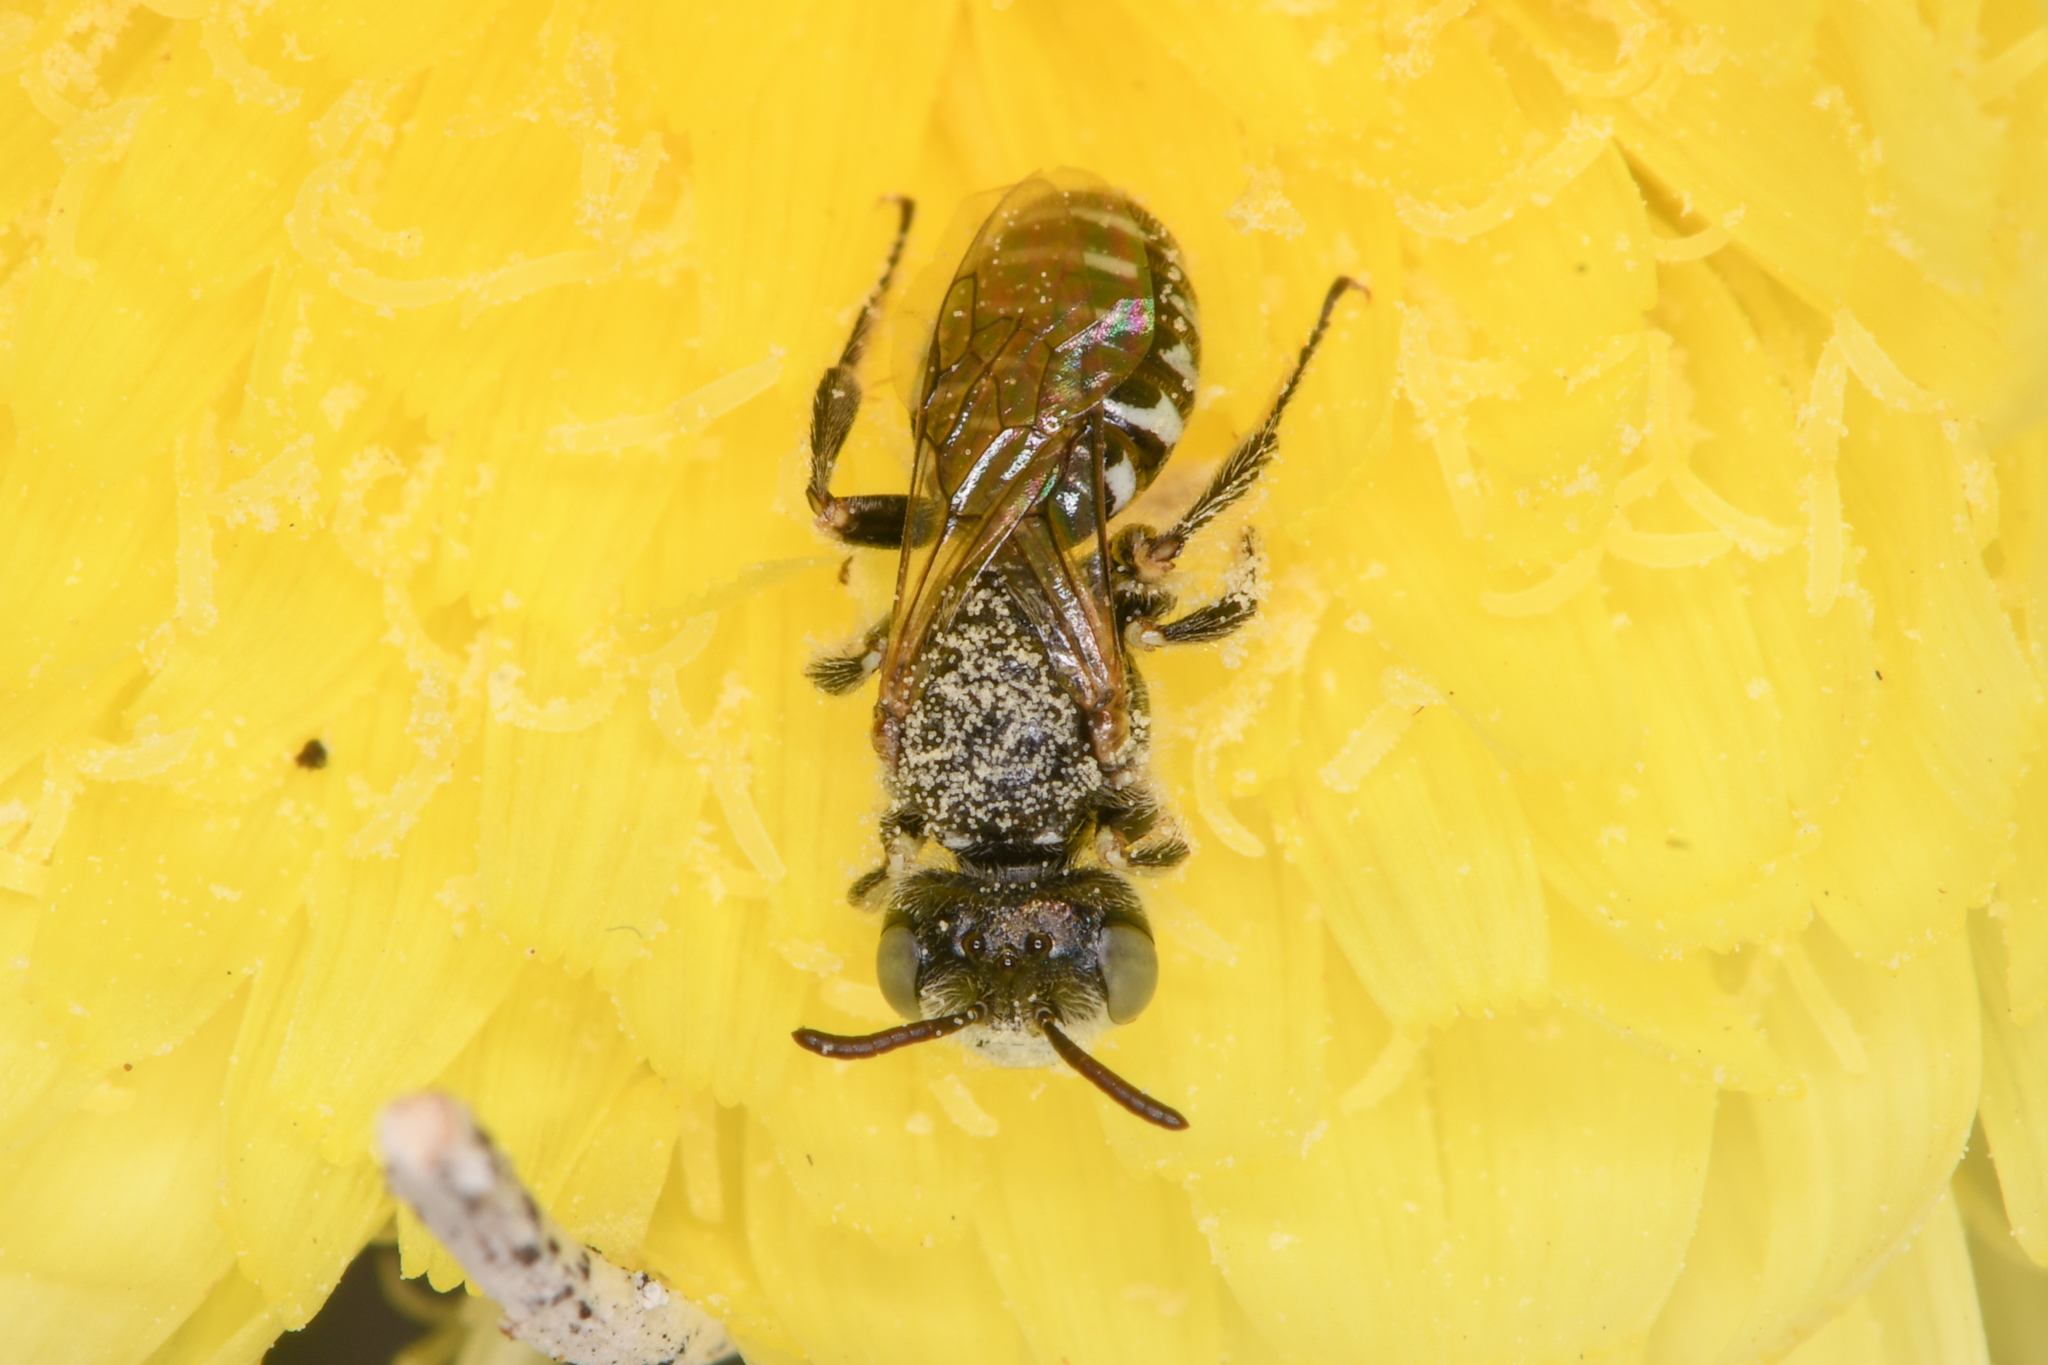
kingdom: Animalia
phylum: Arthropoda
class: Insecta
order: Hymenoptera
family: Andrenidae
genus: Perdita
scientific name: Perdita malacothricis
